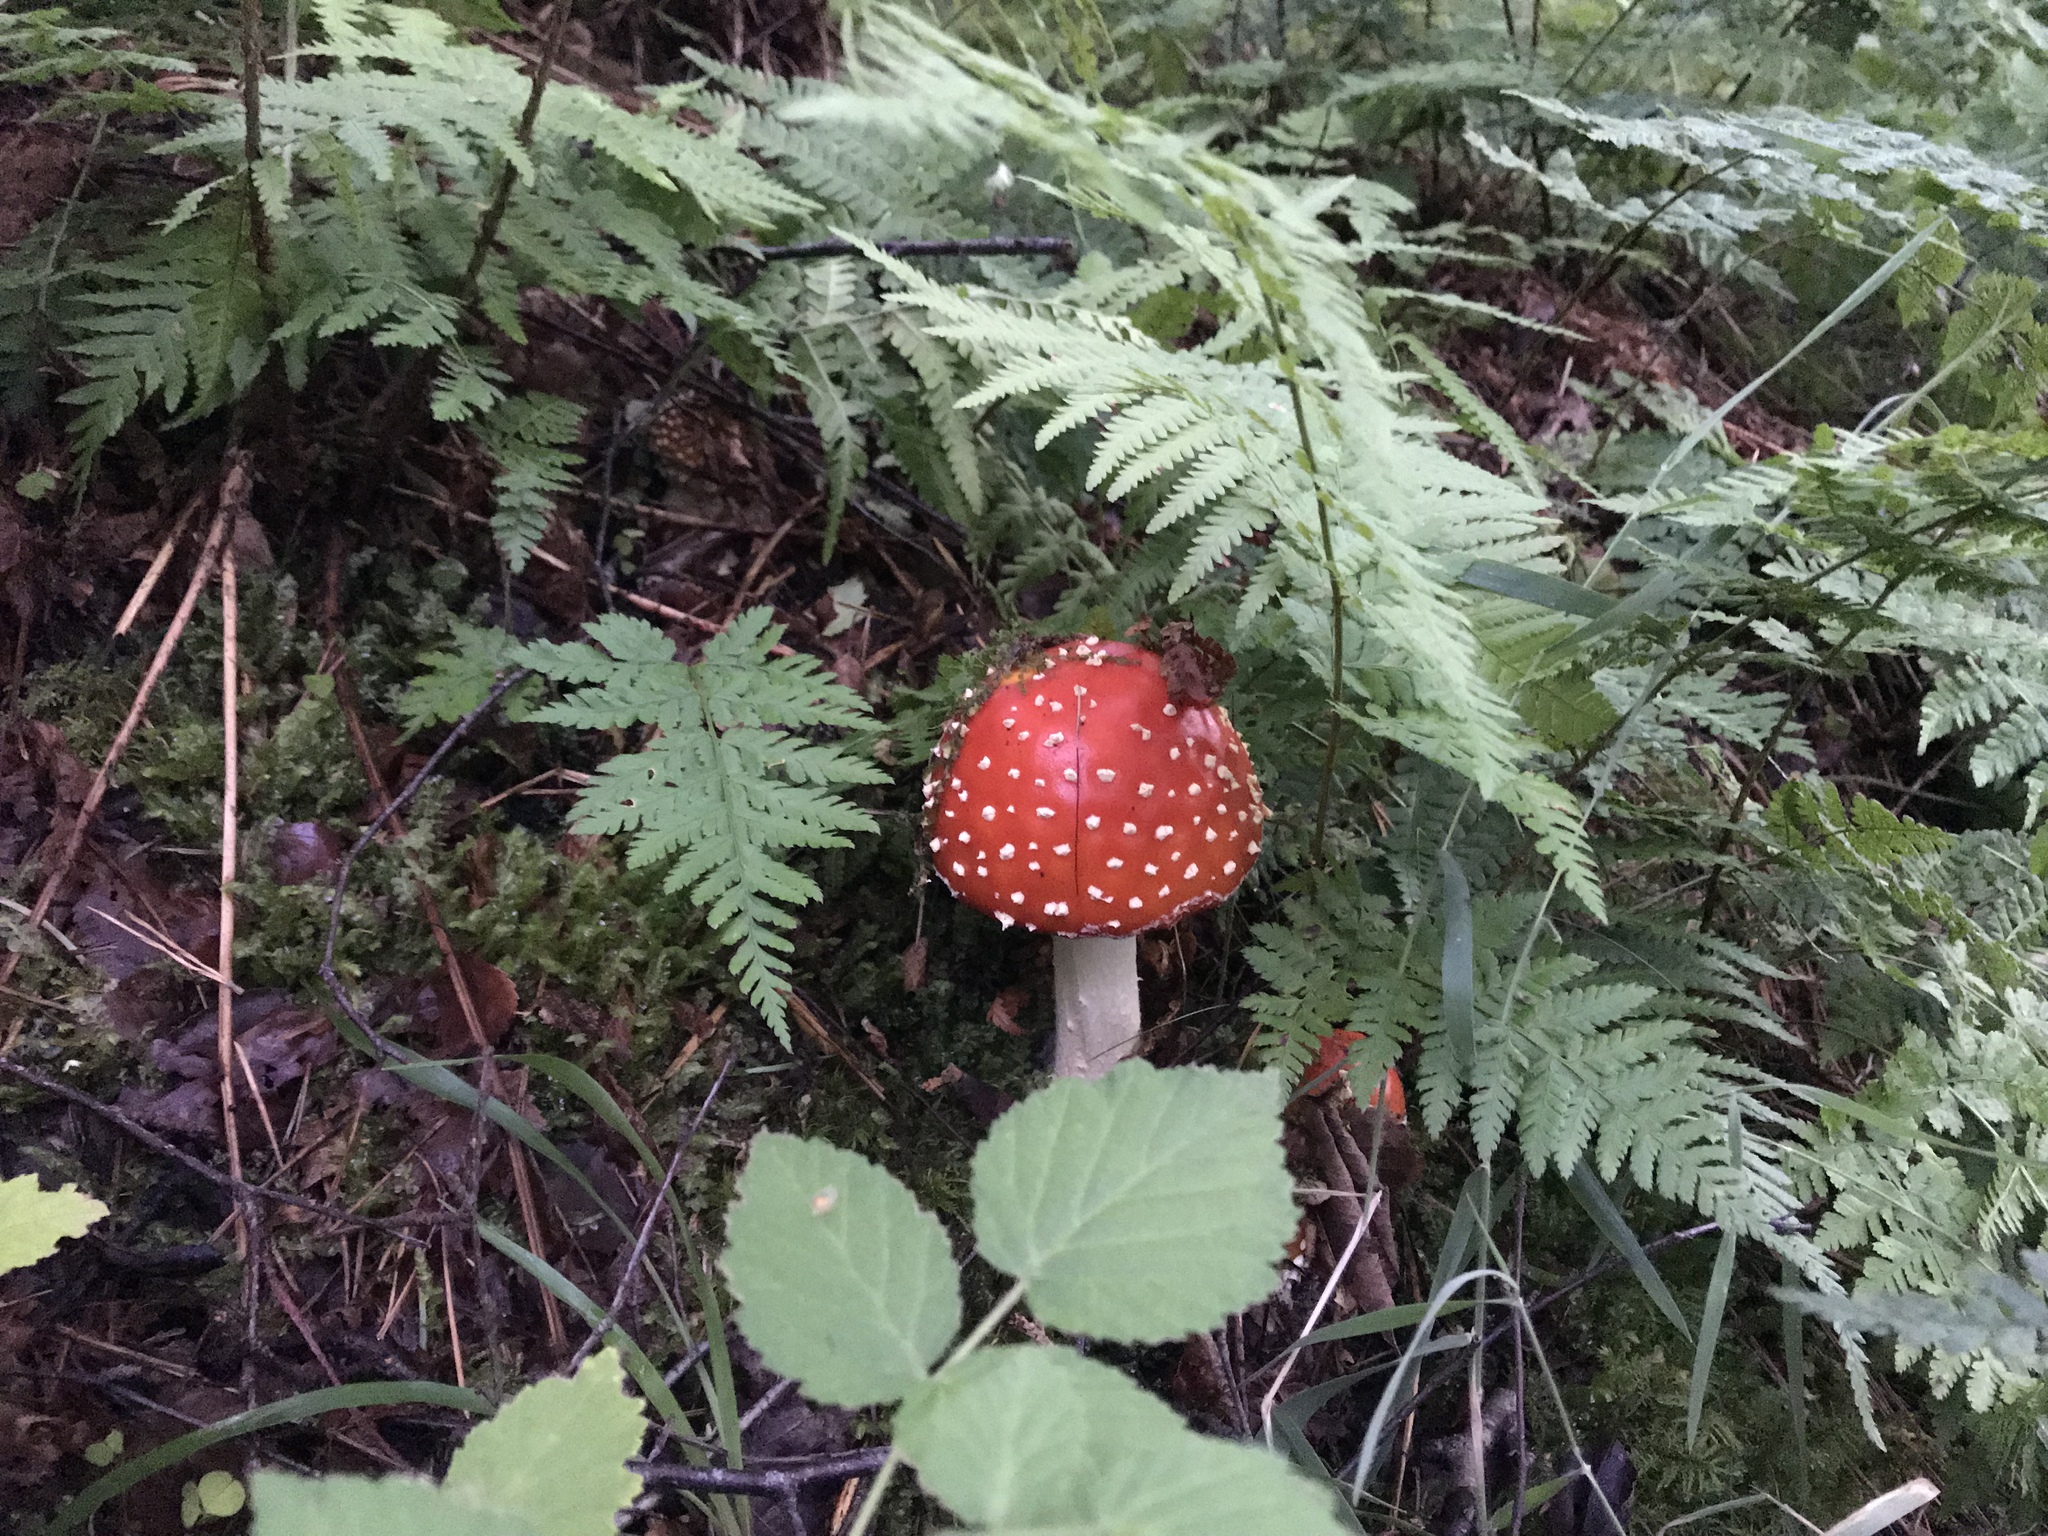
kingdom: Fungi
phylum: Basidiomycota
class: Agaricomycetes
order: Agaricales
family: Amanitaceae
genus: Amanita
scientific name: Amanita muscaria
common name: Fly agaric
